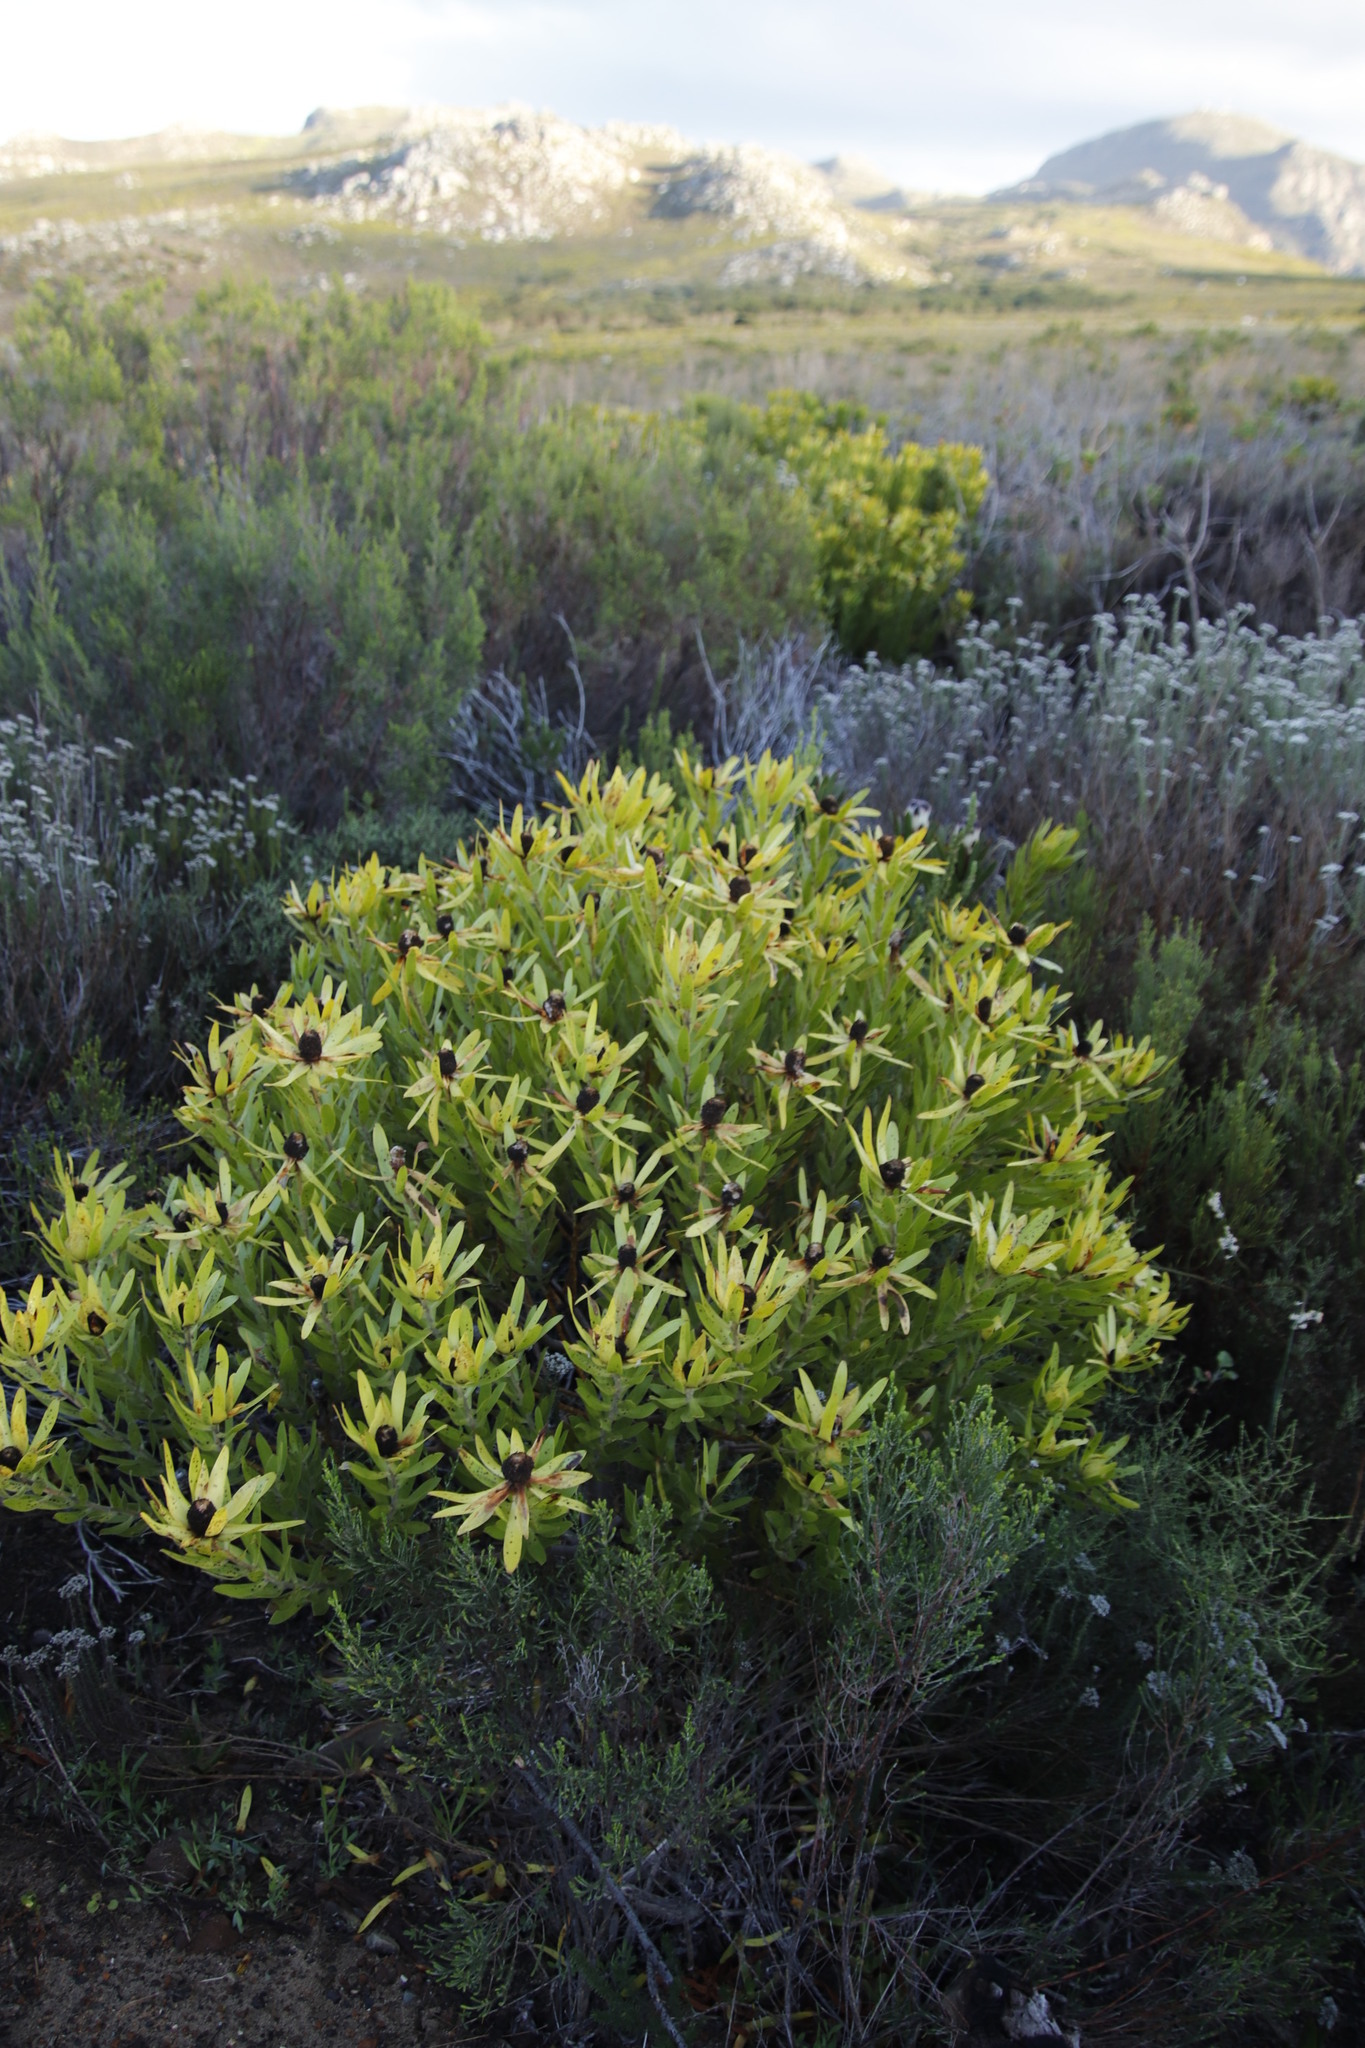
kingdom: Plantae
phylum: Tracheophyta
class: Magnoliopsida
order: Proteales
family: Proteaceae
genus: Leucadendron
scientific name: Leucadendron laureolum
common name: Golden sunshinebush
